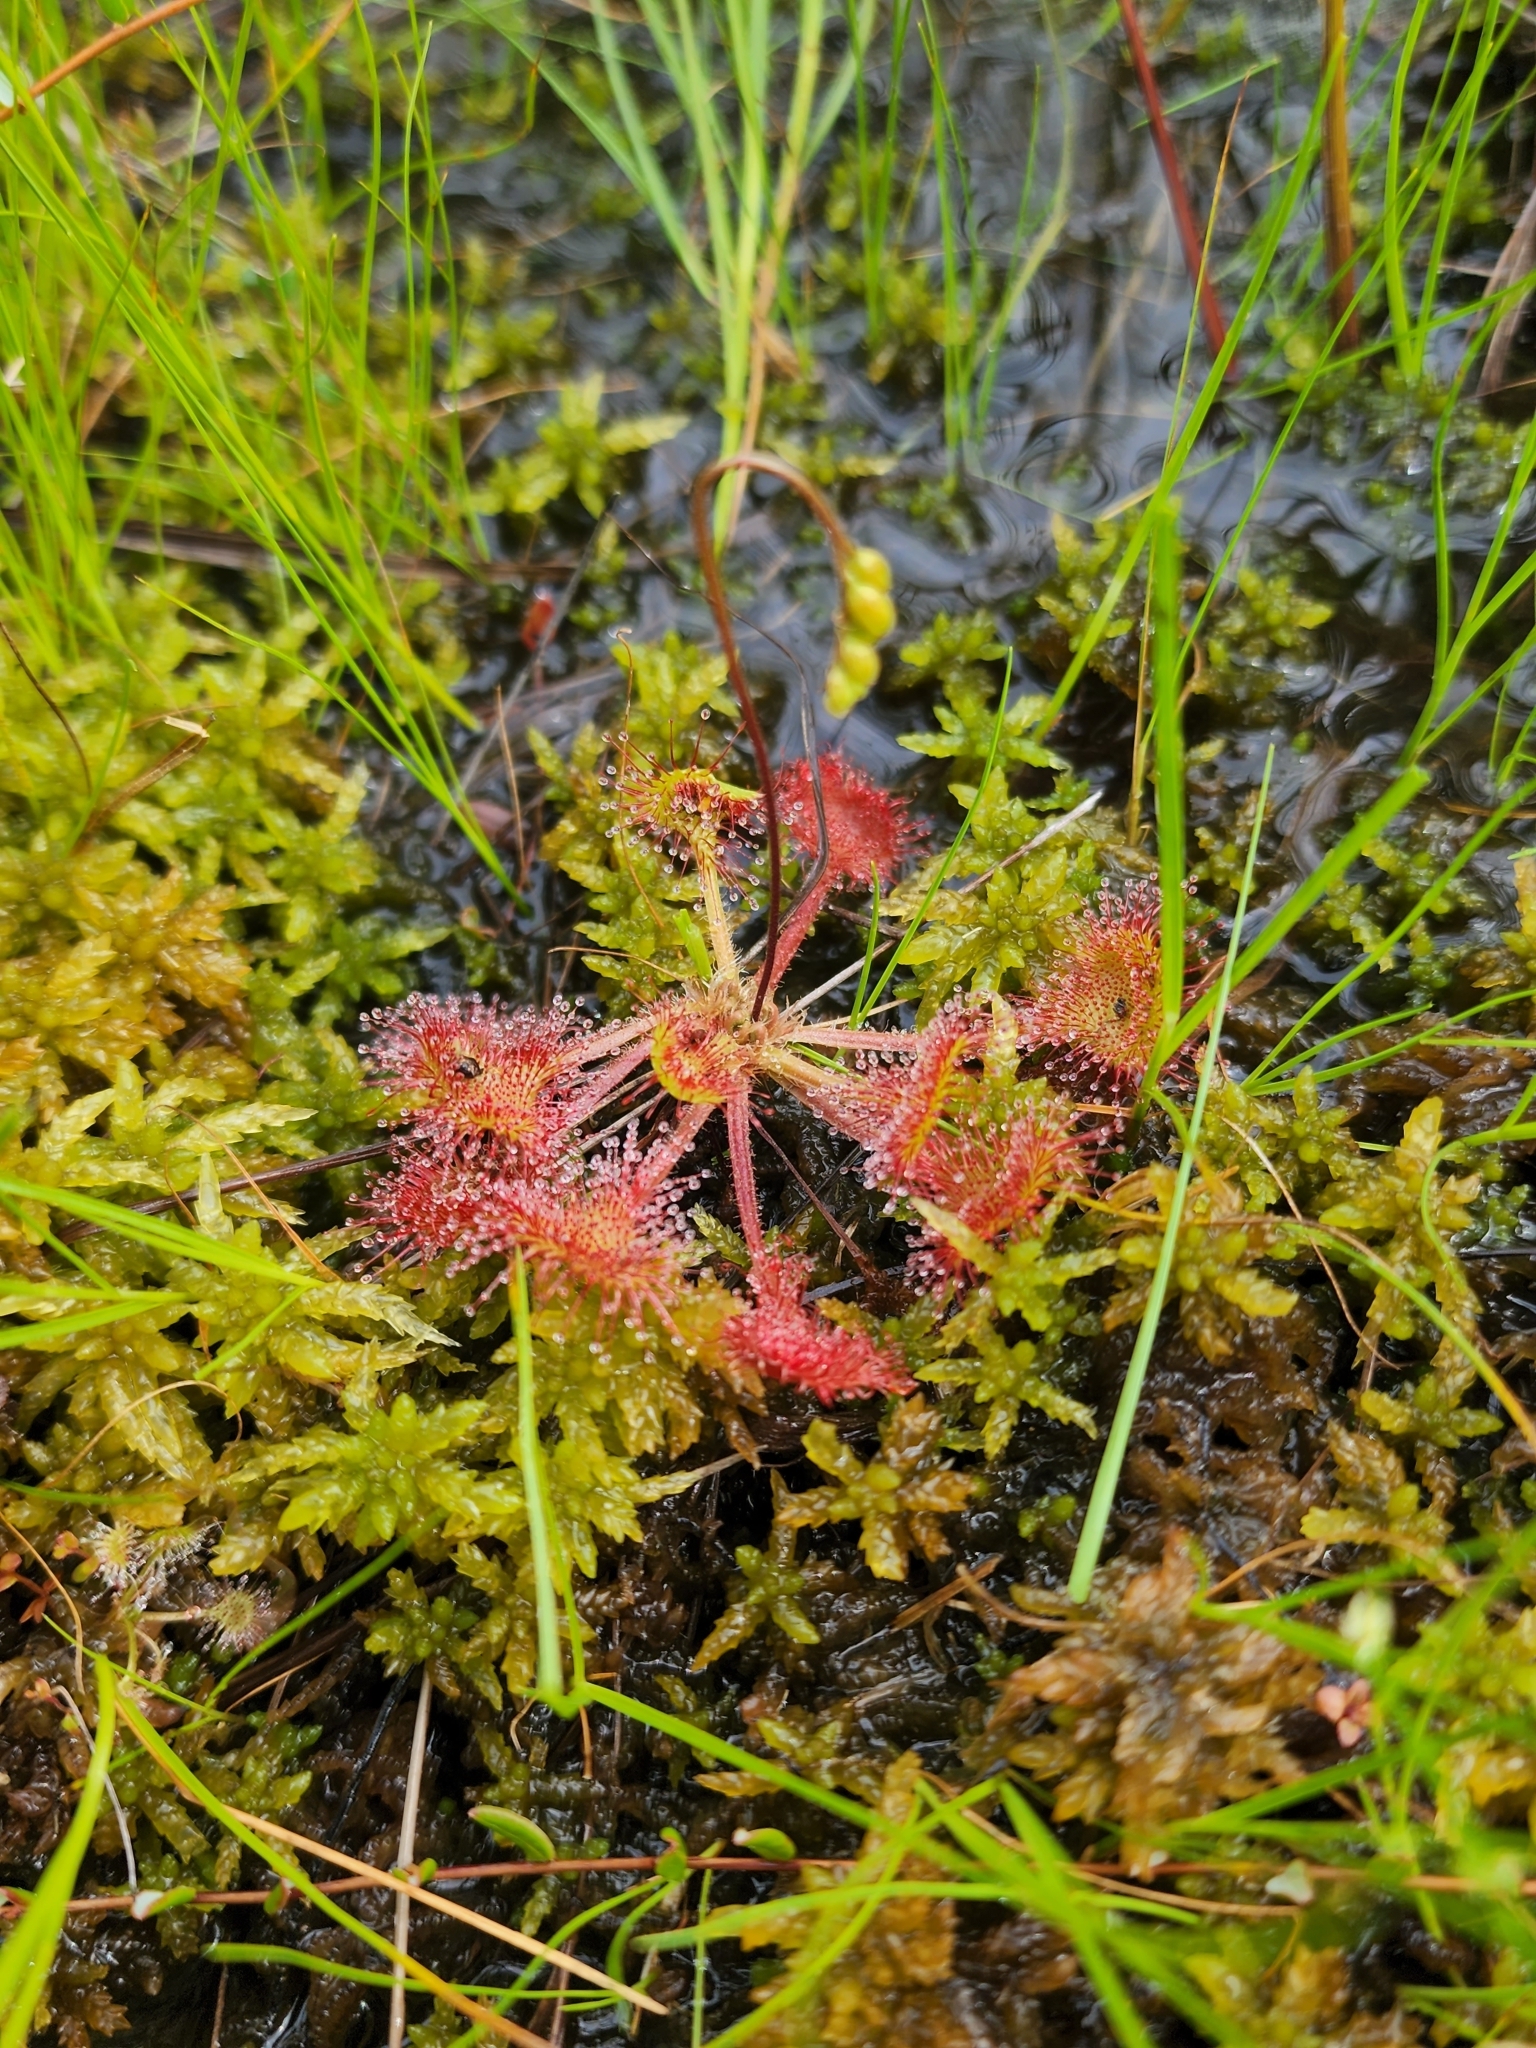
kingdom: Plantae
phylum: Tracheophyta
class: Magnoliopsida
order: Caryophyllales
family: Droseraceae
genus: Drosera
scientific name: Drosera rotundifolia
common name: Round-leaved sundew
